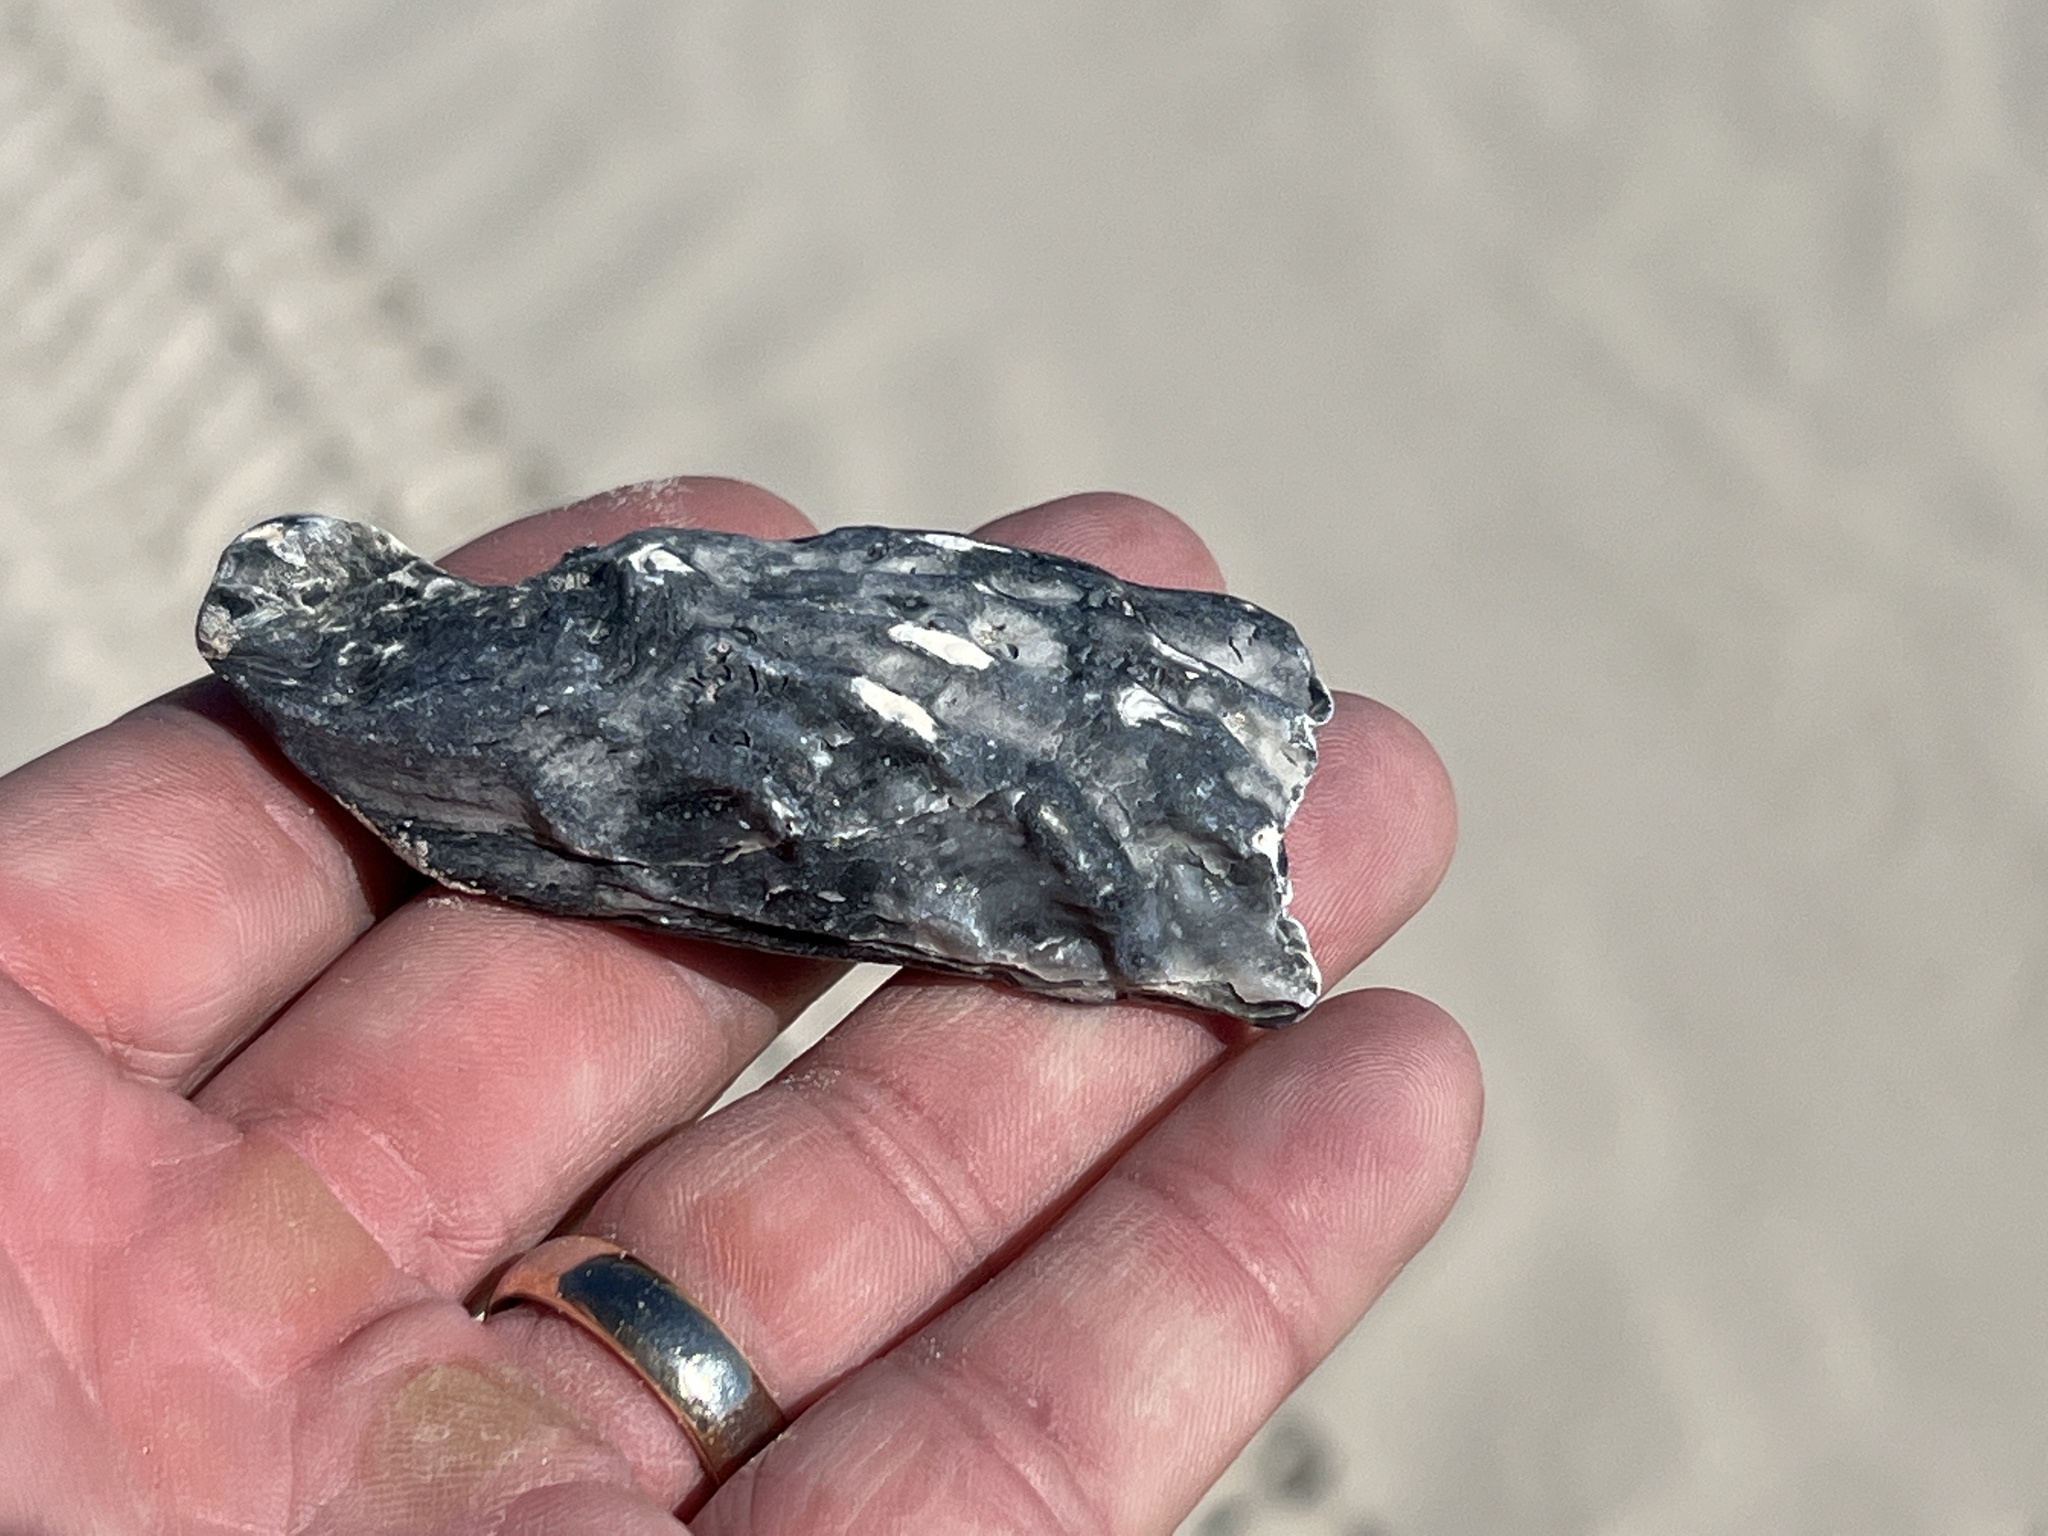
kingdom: Animalia
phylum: Mollusca
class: Bivalvia
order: Ostreida
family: Ostreidae
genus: Crassostrea
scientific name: Crassostrea virginica
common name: American oyster
